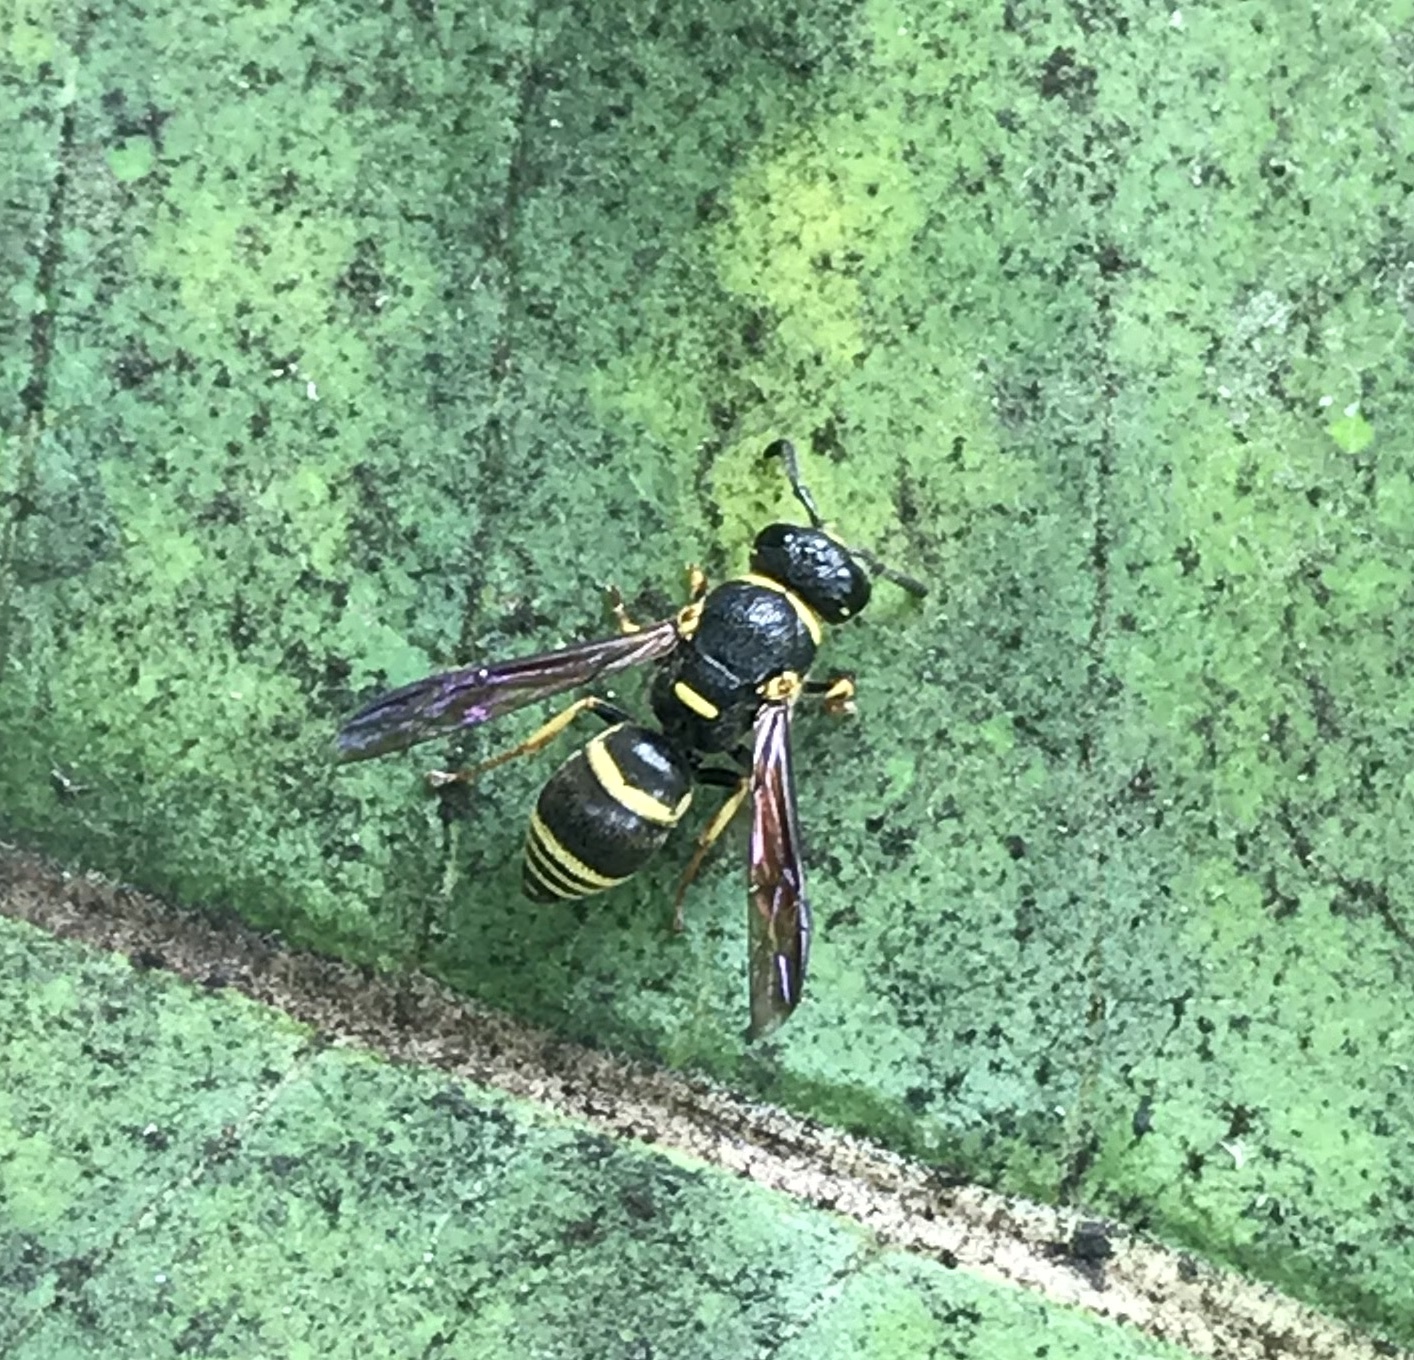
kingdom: Animalia
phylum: Arthropoda
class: Insecta
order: Hymenoptera
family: Eumenidae
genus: Euodynerus
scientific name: Euodynerus foraminatus
